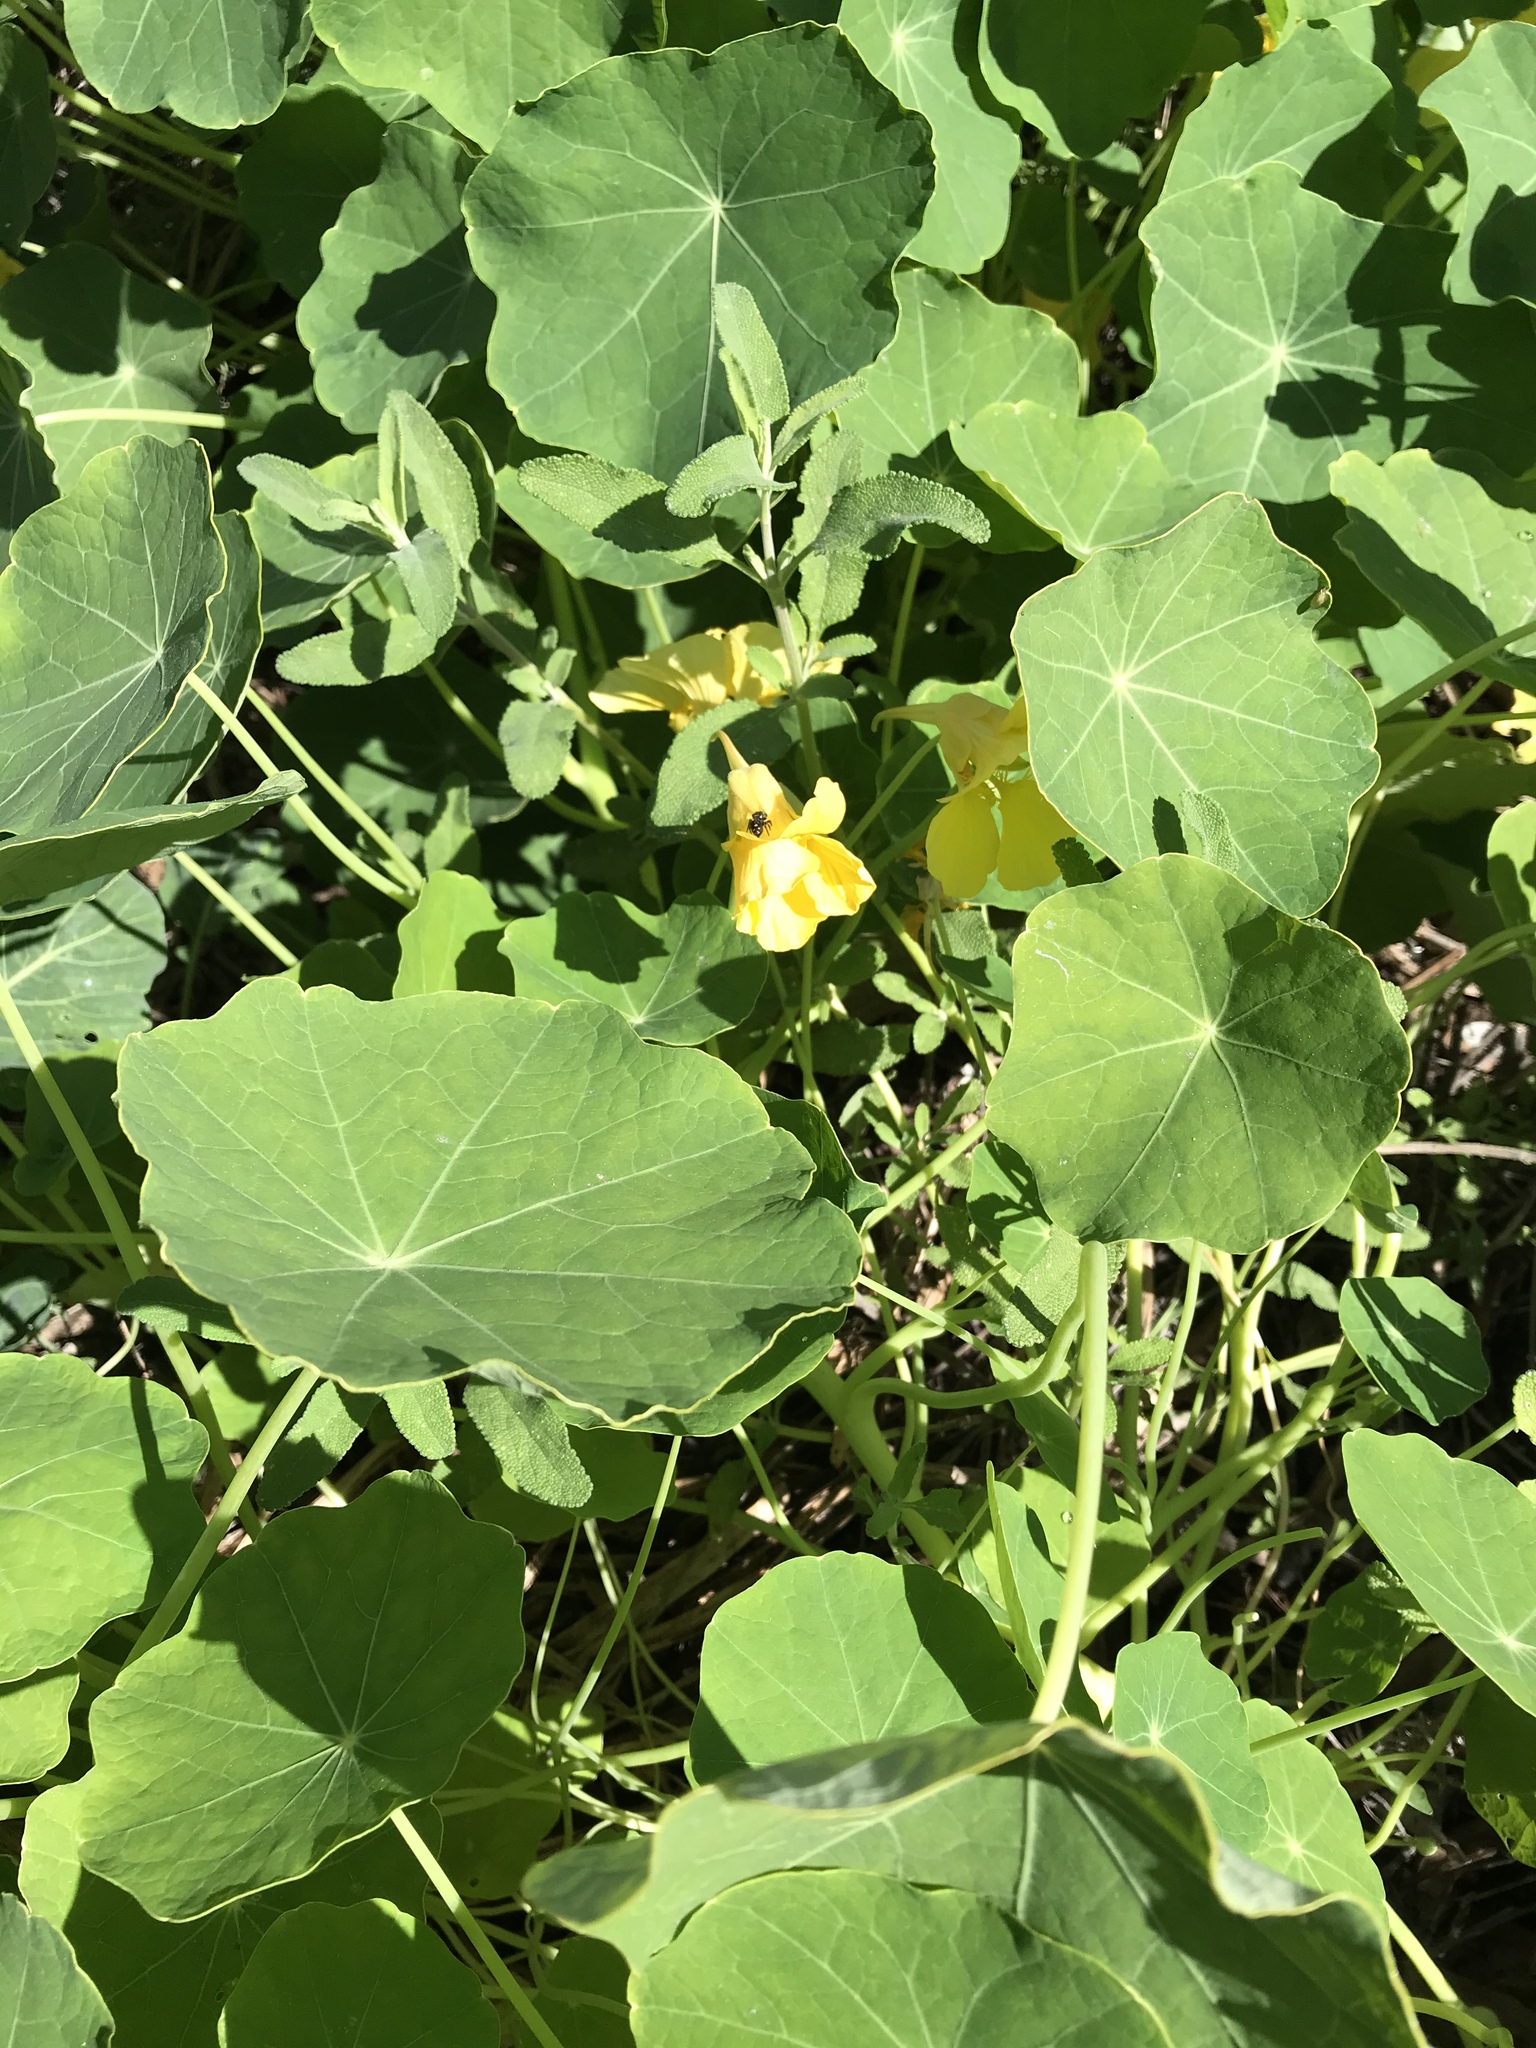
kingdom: Animalia
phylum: Arthropoda
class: Arachnida
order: Araneae
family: Salticidae
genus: Phidippus
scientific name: Phidippus audax
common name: Bold jumper
